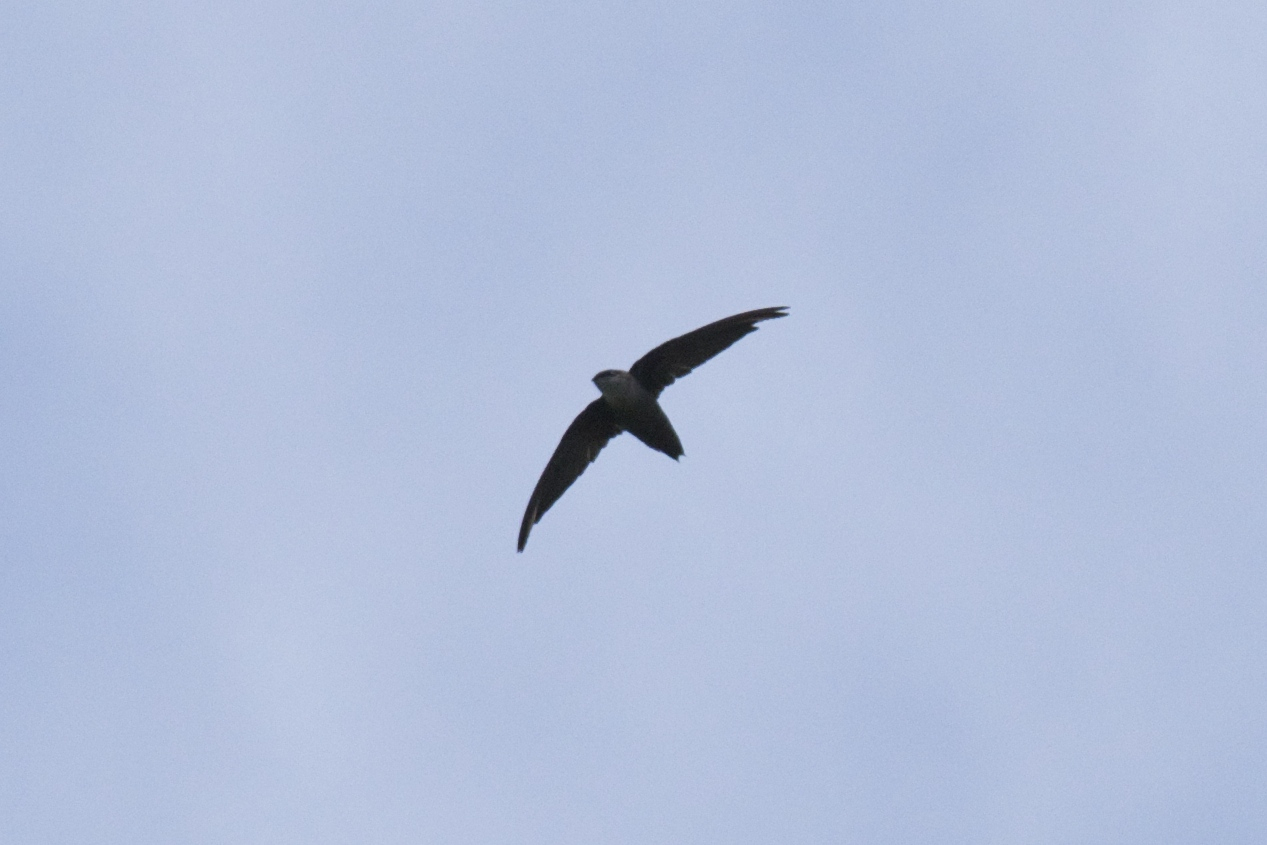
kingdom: Animalia
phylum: Chordata
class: Aves
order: Apodiformes
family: Apodidae
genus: Chaetura
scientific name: Chaetura pelagica
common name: Chimney swift
